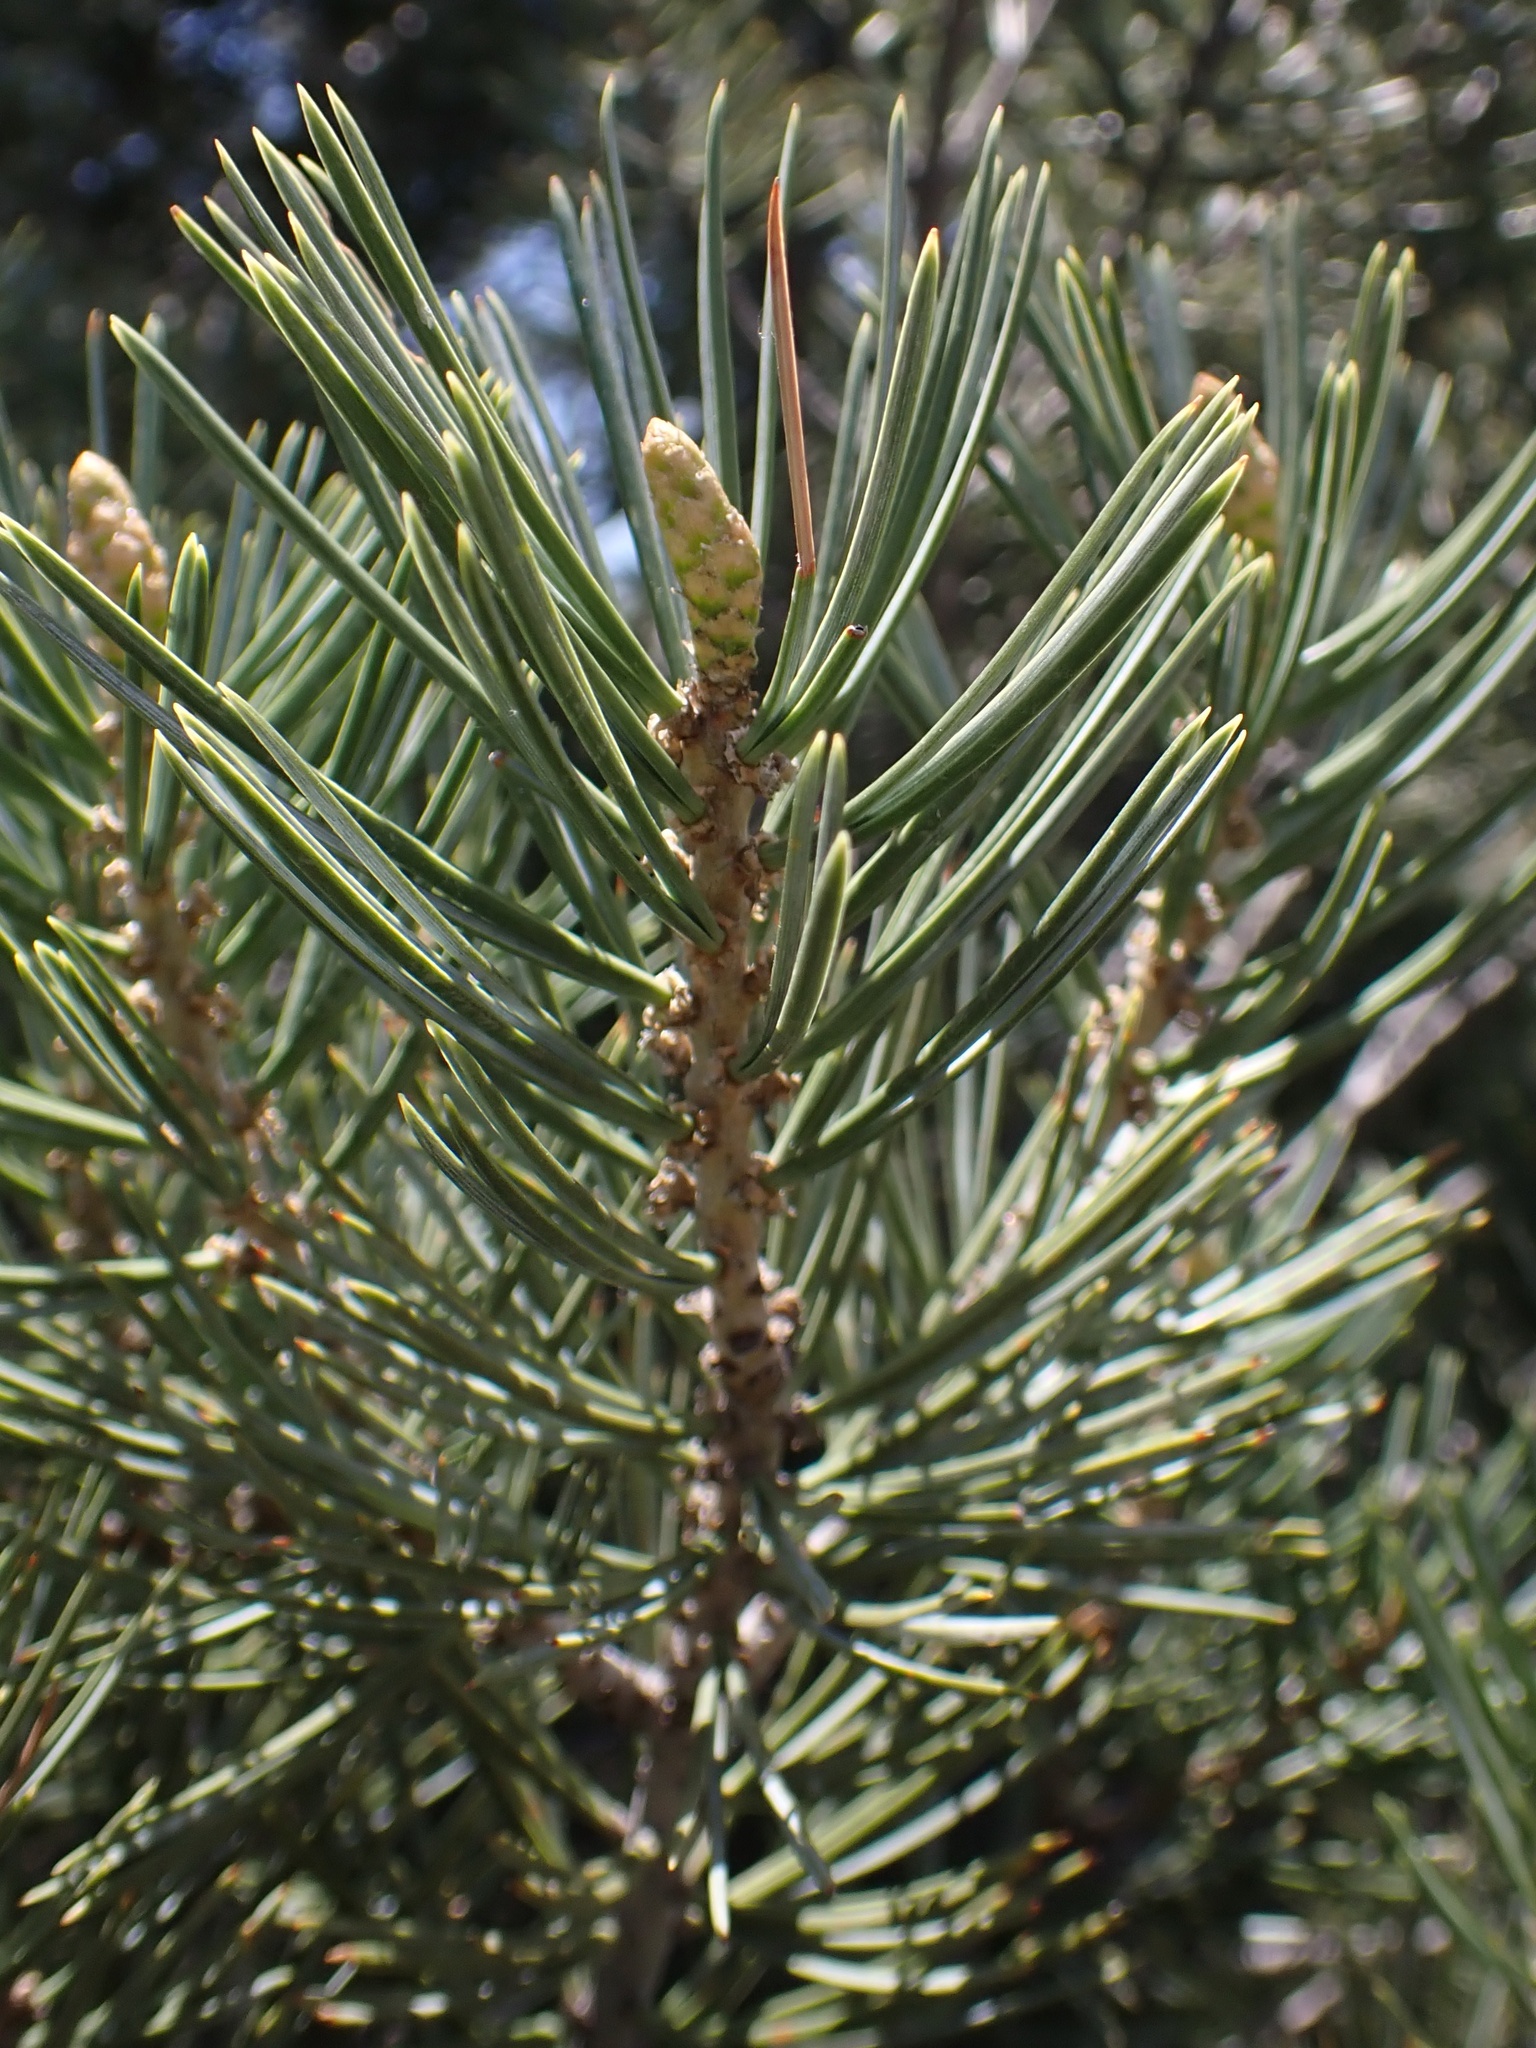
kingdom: Plantae
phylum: Tracheophyta
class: Pinopsida
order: Pinales
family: Pinaceae
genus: Pinus
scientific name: Pinus quadrifolia
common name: Parry pinyon
